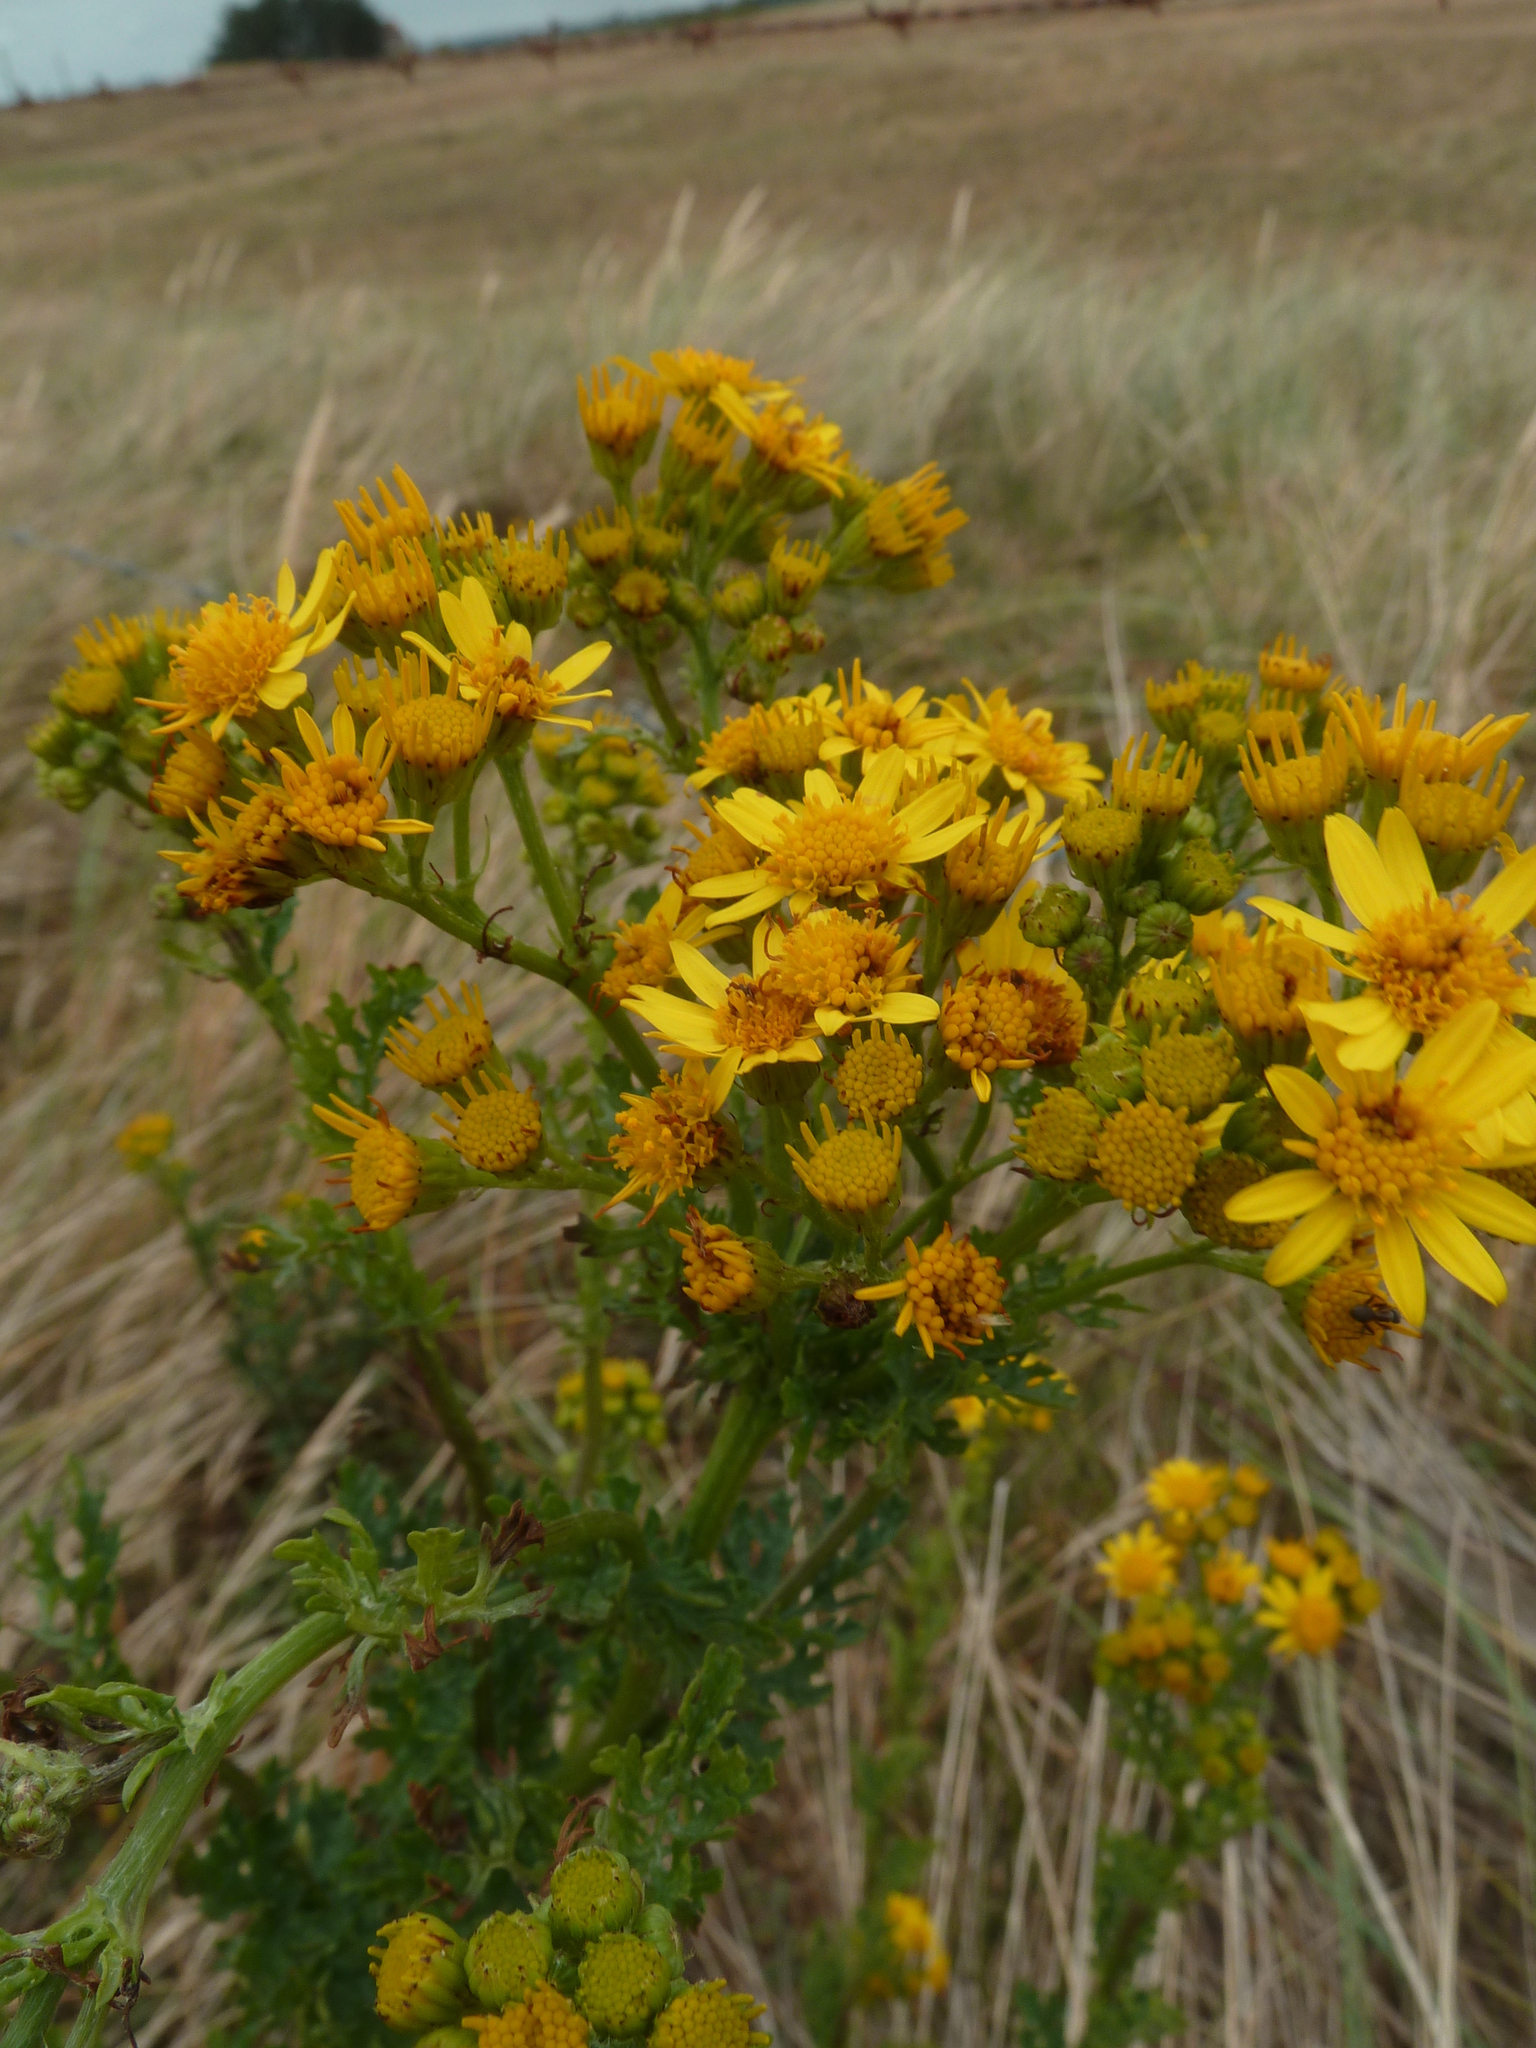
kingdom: Plantae
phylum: Tracheophyta
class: Magnoliopsida
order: Asterales
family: Asteraceae
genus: Jacobaea
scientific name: Jacobaea vulgaris
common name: Stinking willie
